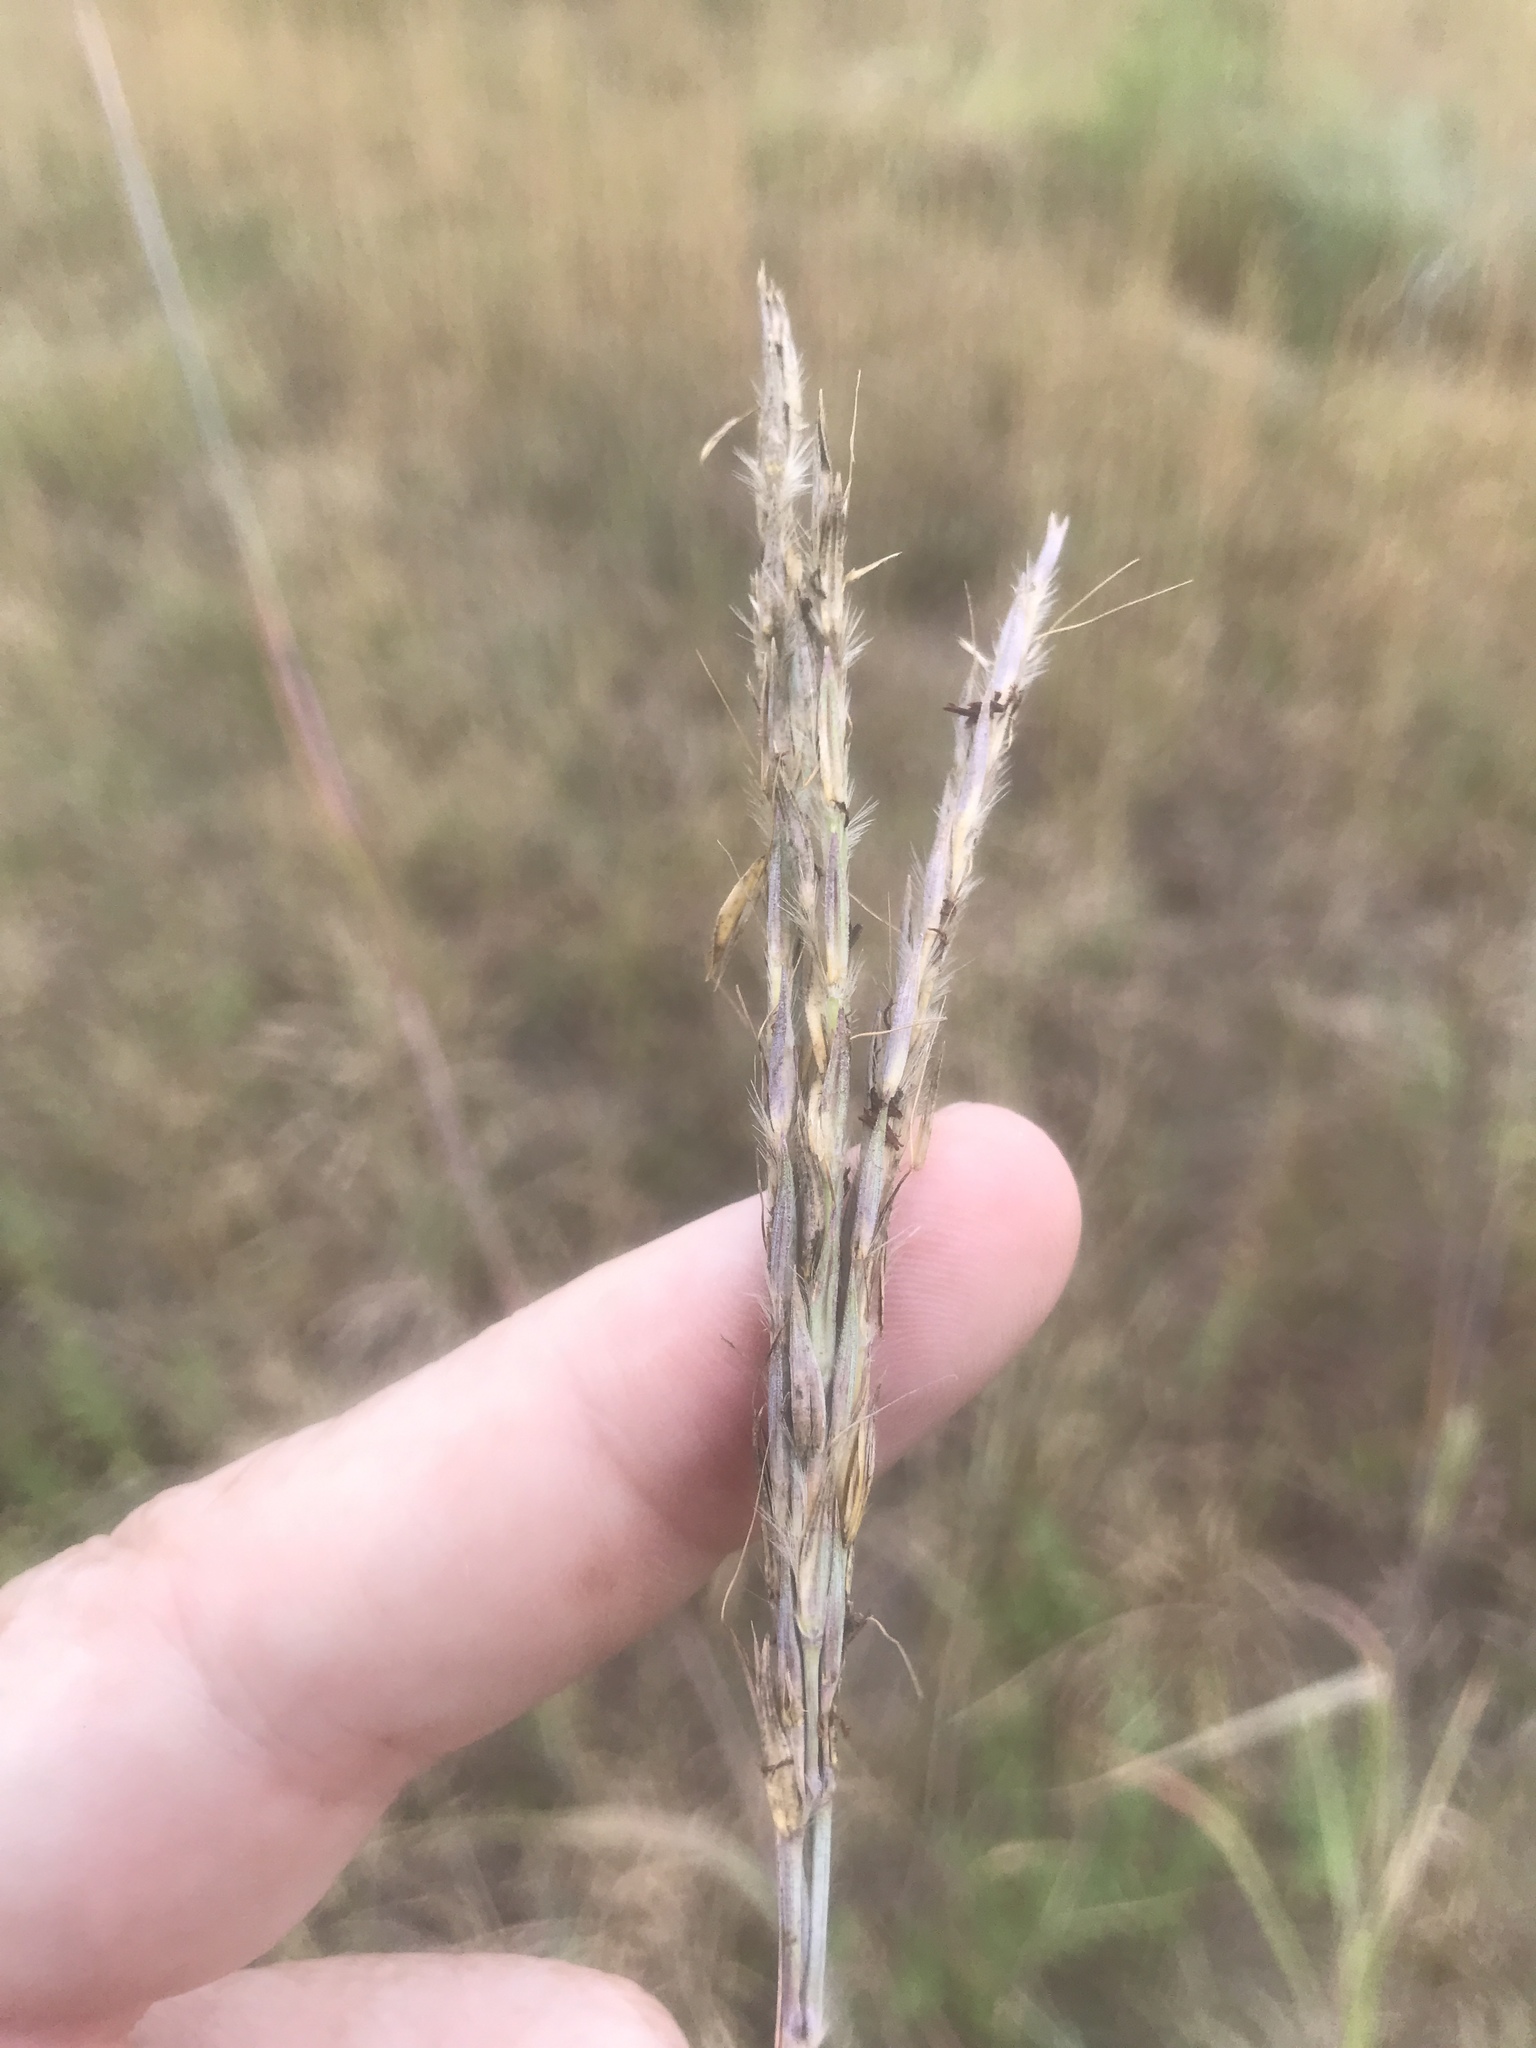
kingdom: Plantae
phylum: Tracheophyta
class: Liliopsida
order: Poales
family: Poaceae
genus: Andropogon
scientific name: Andropogon gerardi
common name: Big bluestem
